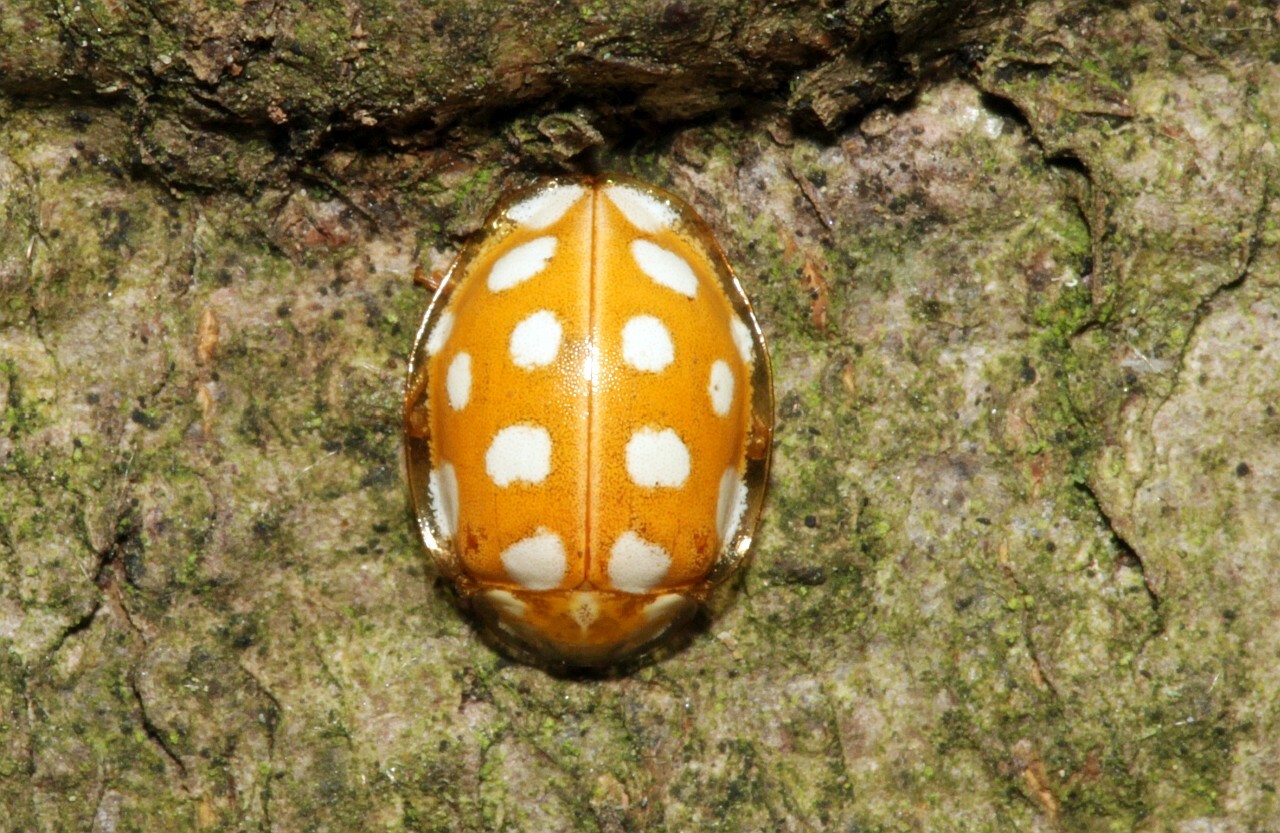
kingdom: Animalia
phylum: Arthropoda
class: Insecta
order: Coleoptera
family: Coccinellidae
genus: Halyzia
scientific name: Halyzia sedecimguttata
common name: Orange ladybird
